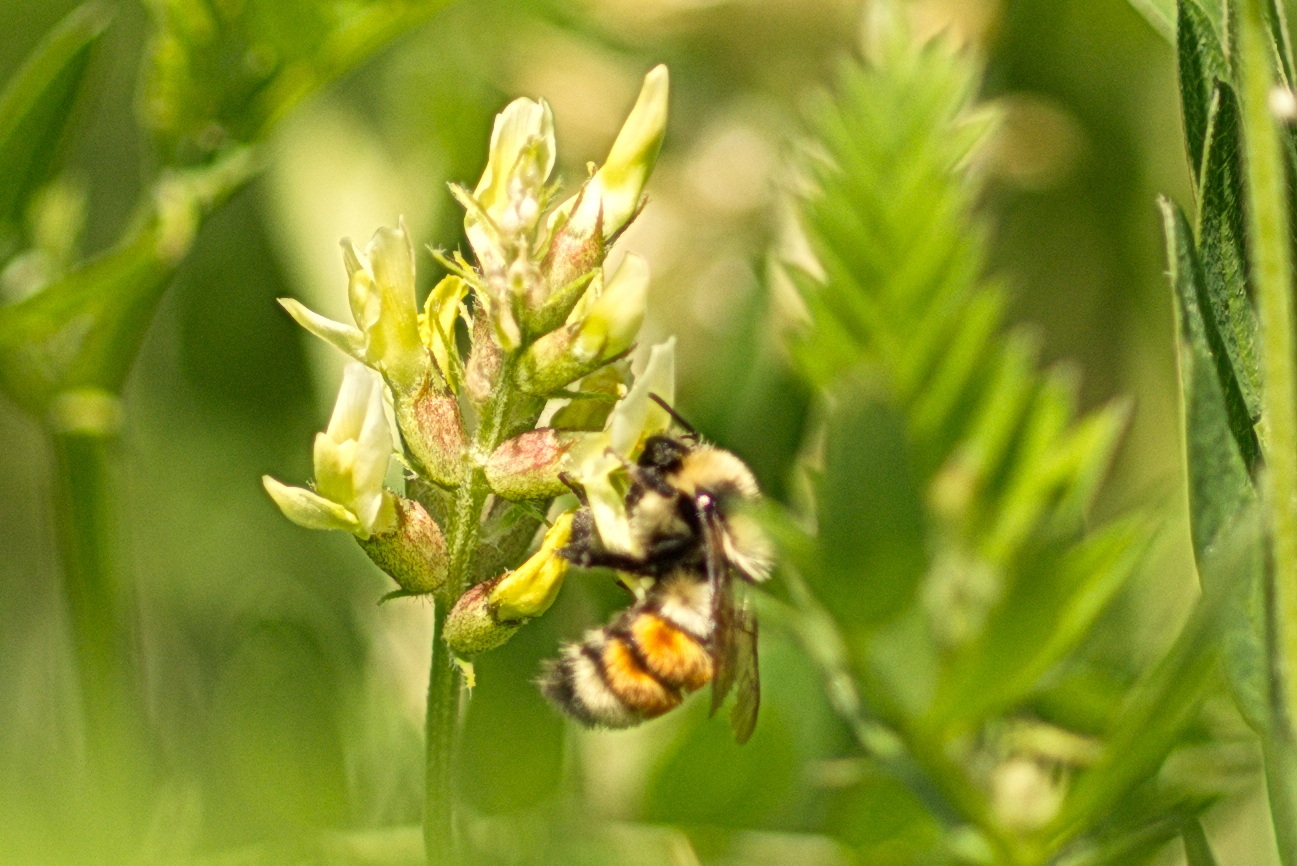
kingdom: Animalia
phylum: Arthropoda
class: Insecta
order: Hymenoptera
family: Apidae
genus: Bombus
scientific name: Bombus huntii
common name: Hunt bumble bee
